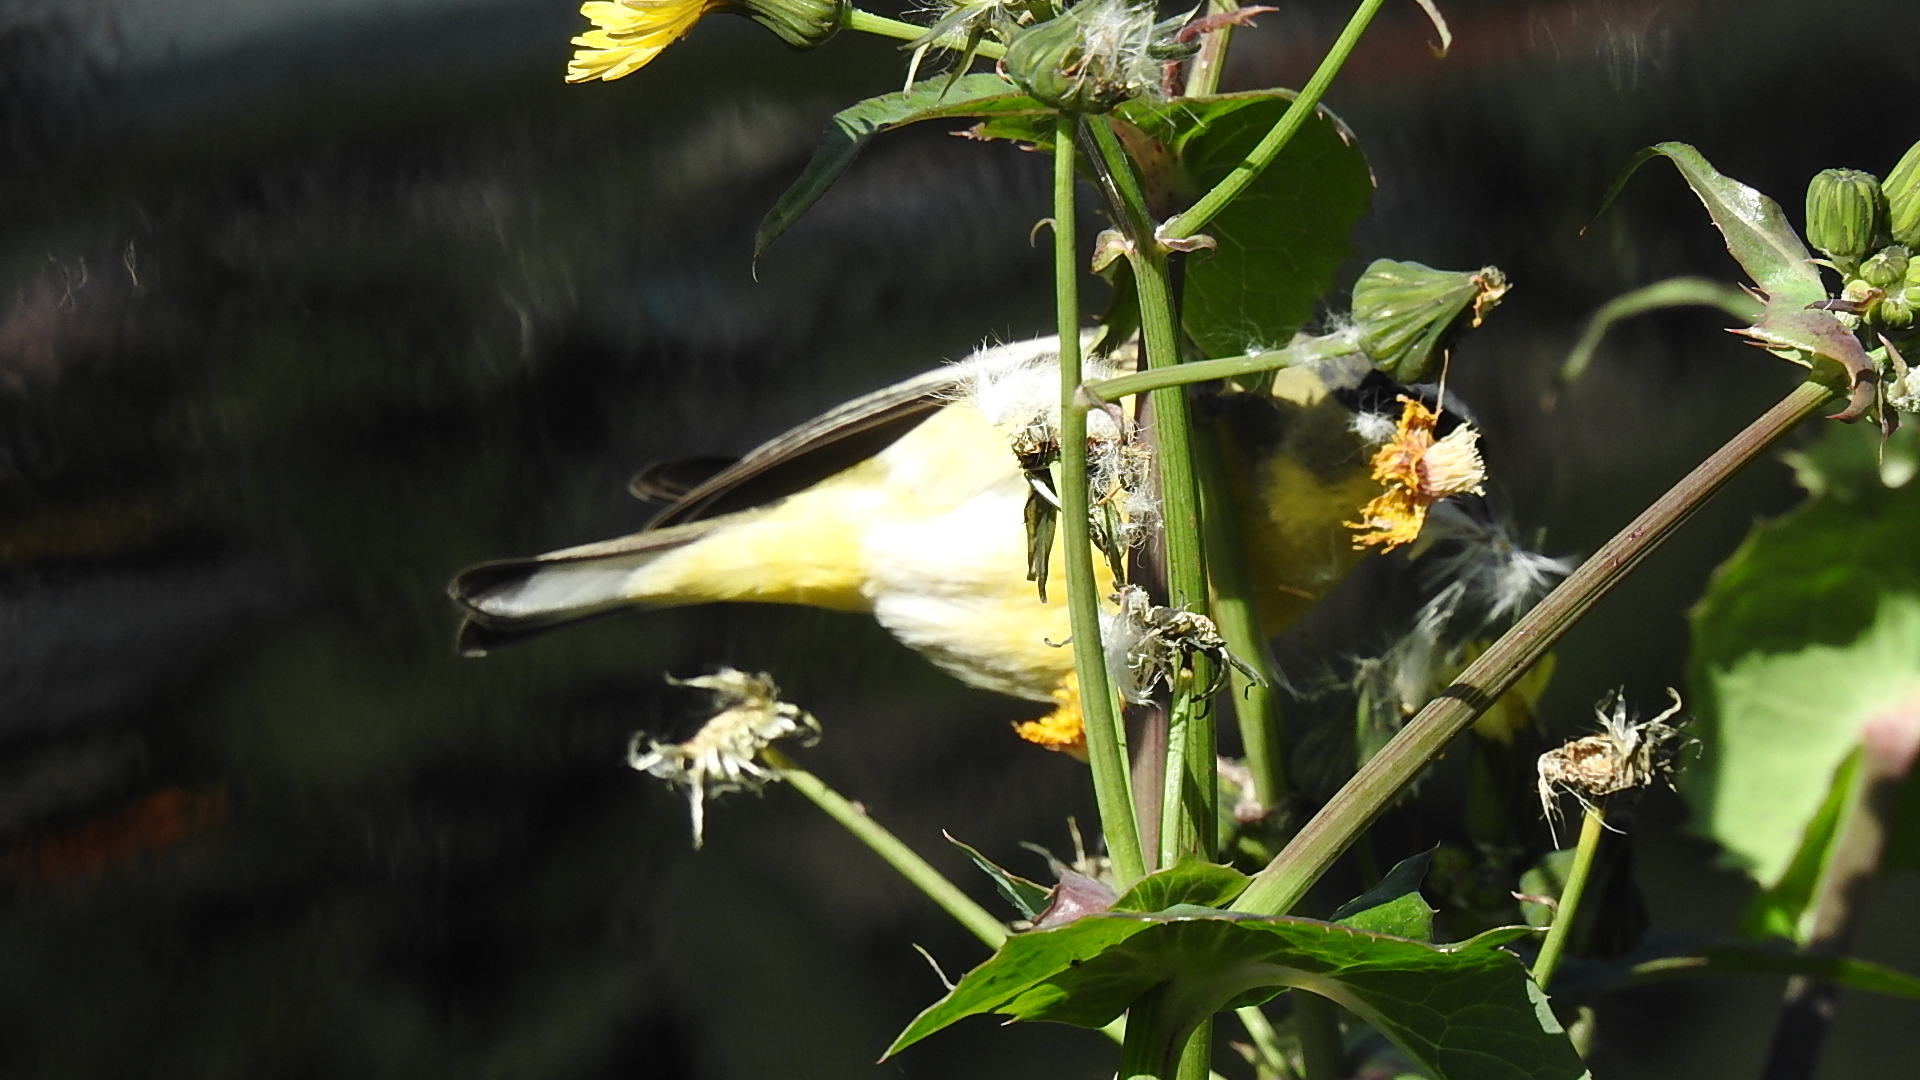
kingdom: Animalia
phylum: Chordata
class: Aves
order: Passeriformes
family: Fringillidae
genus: Spinus
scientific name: Spinus psaltria
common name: Lesser goldfinch
